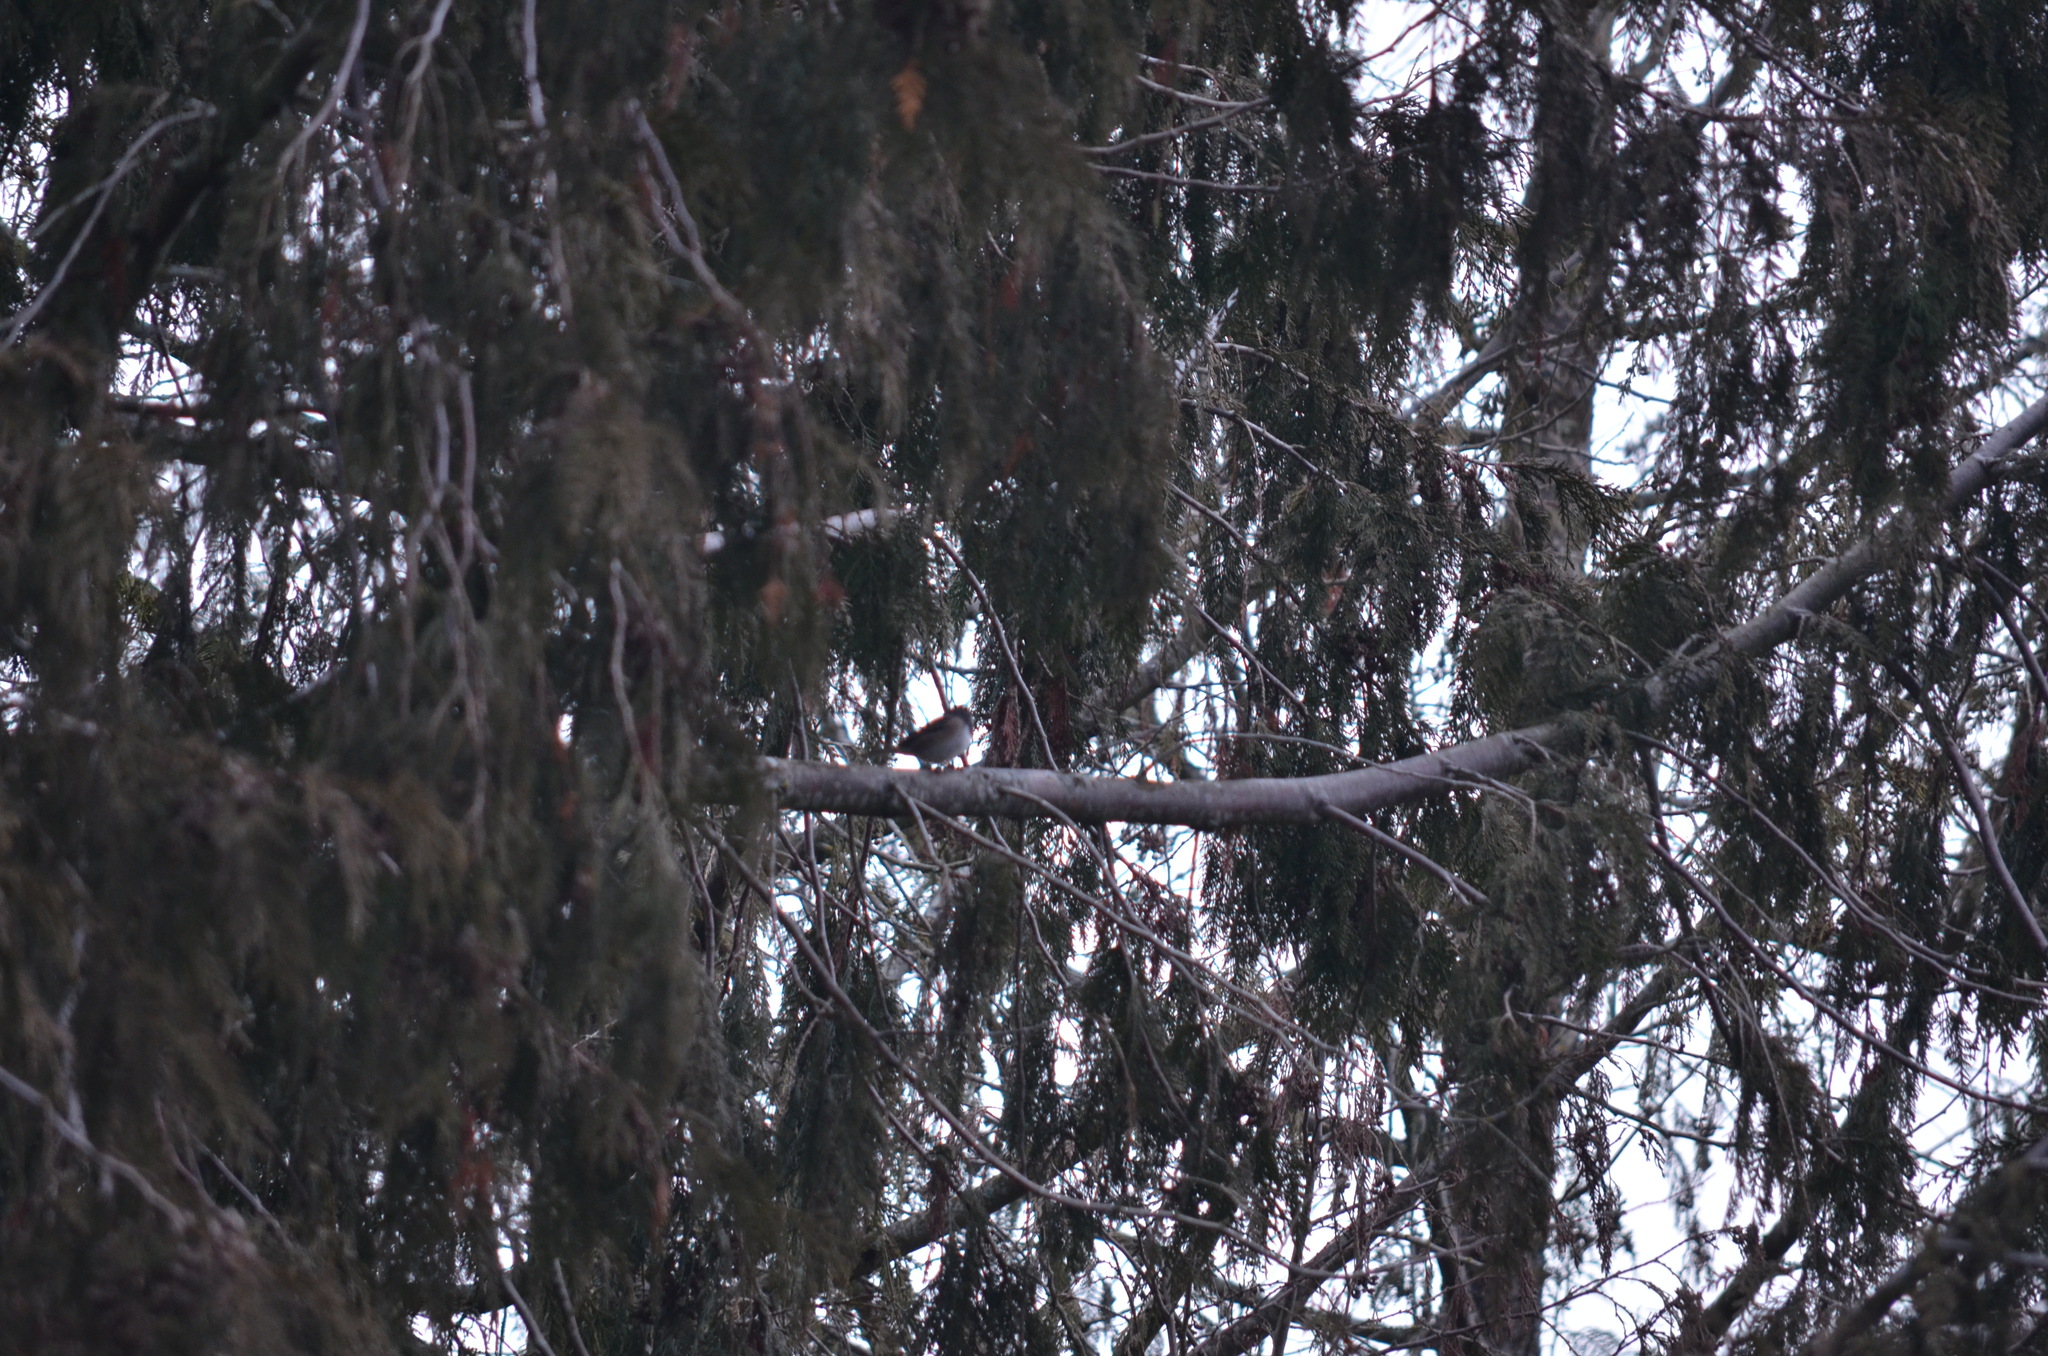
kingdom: Animalia
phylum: Chordata
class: Aves
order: Passeriformes
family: Passerellidae
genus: Junco
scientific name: Junco hyemalis
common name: Dark-eyed junco
